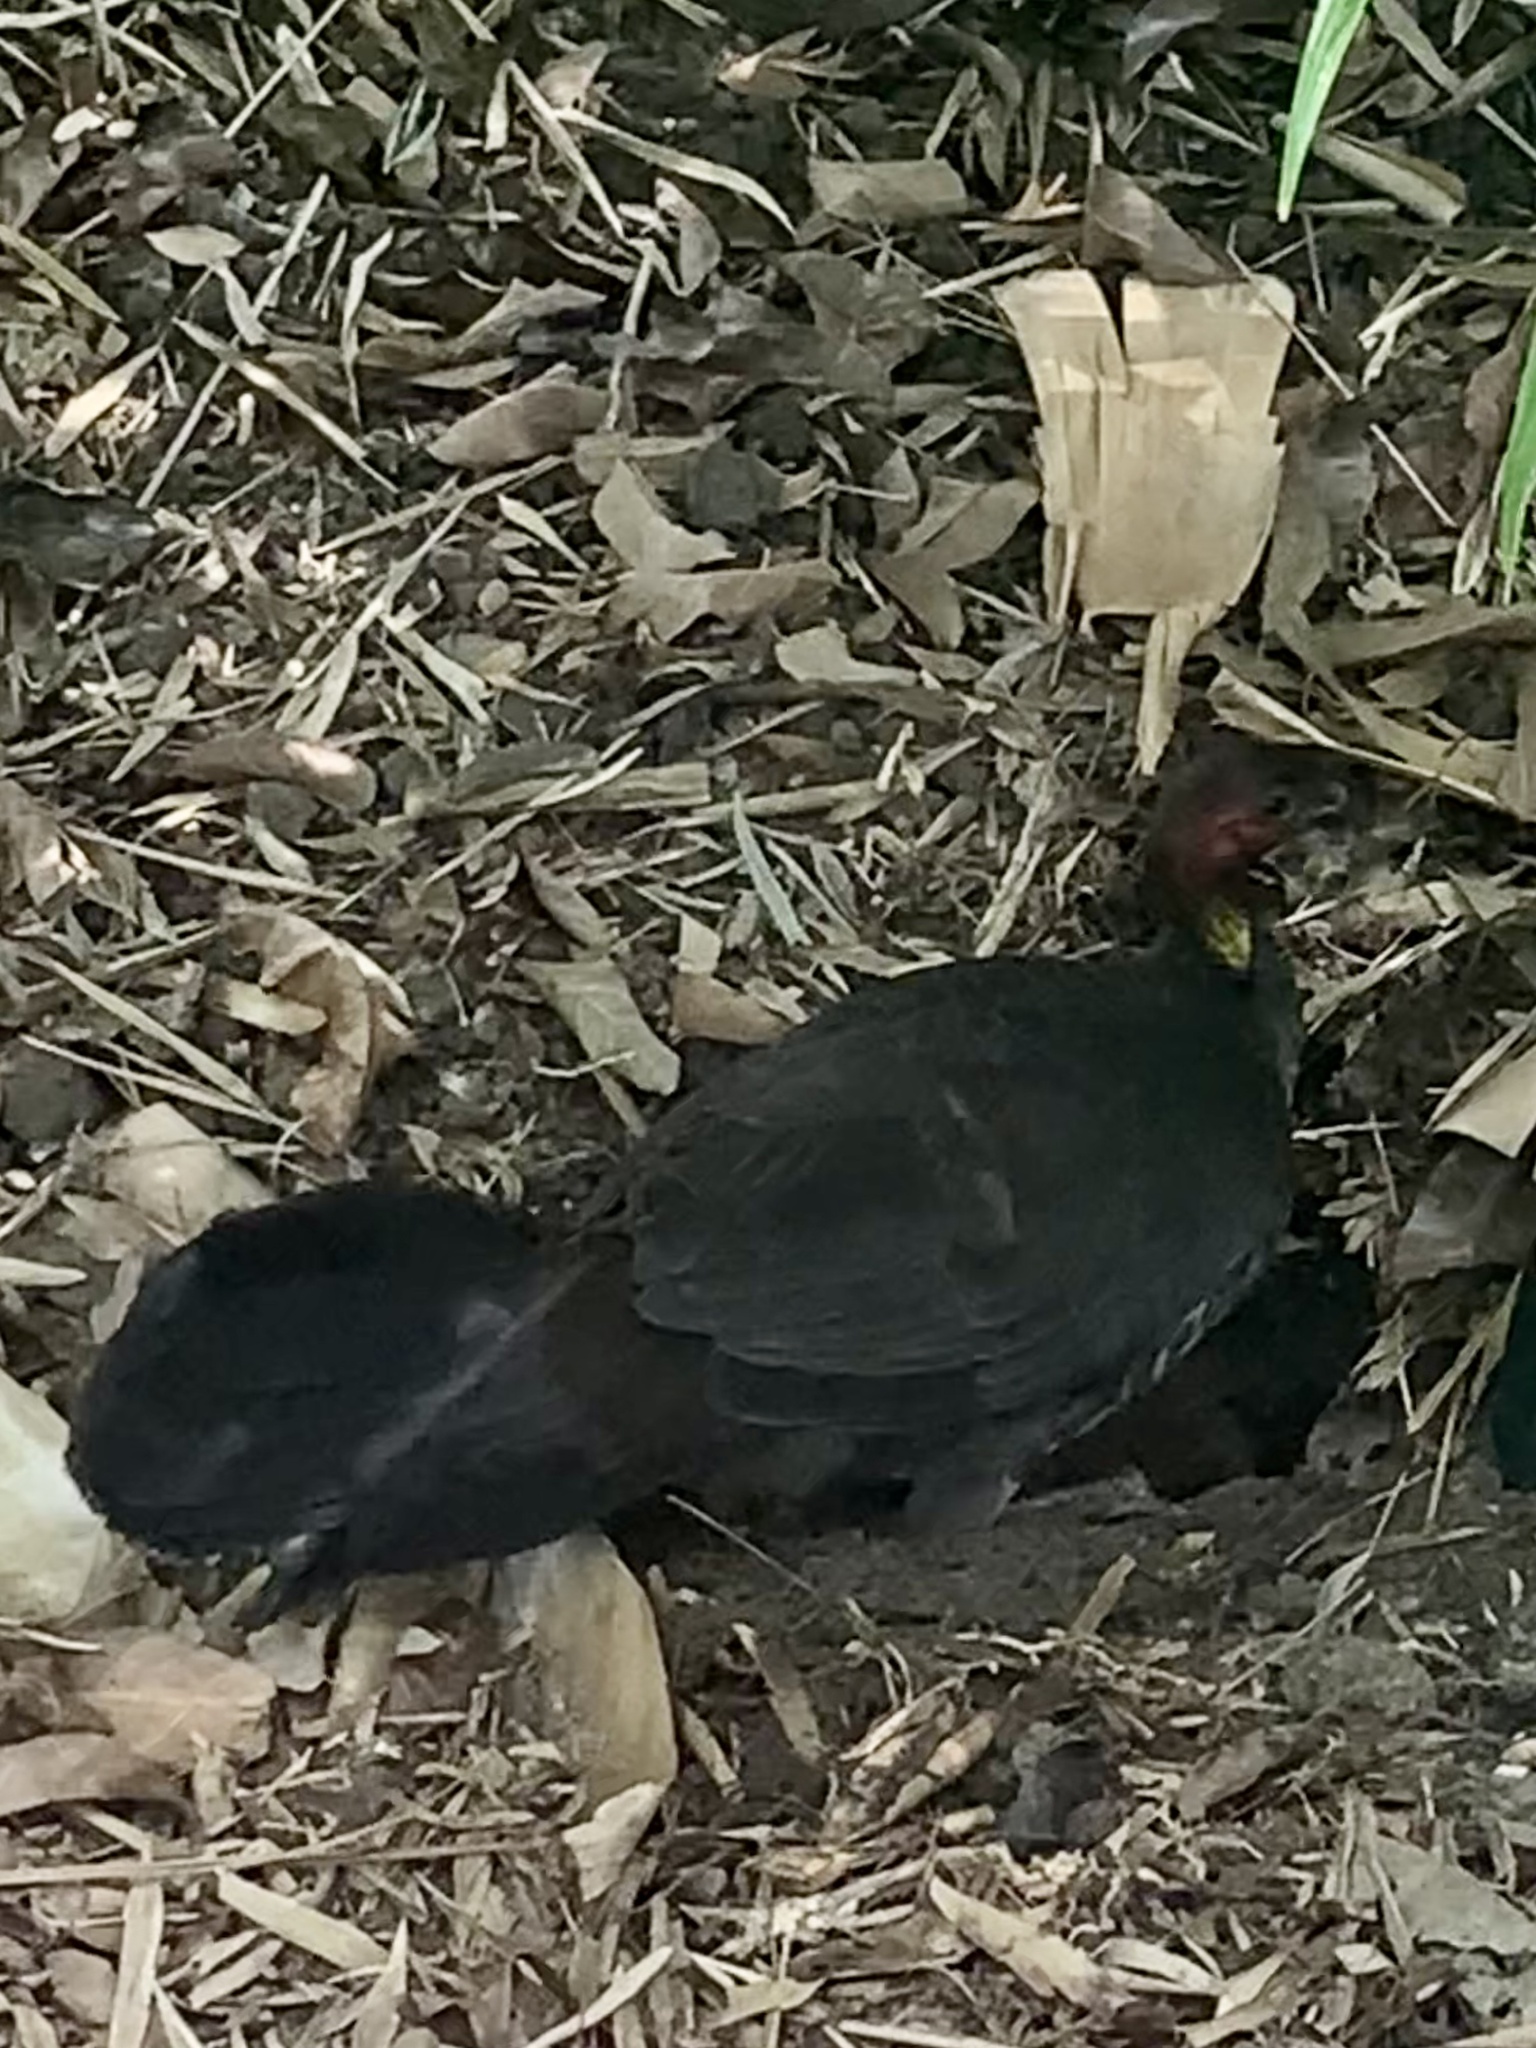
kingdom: Animalia
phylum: Chordata
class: Aves
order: Galliformes
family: Megapodiidae
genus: Alectura
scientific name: Alectura lathami
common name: Australian brushturkey
